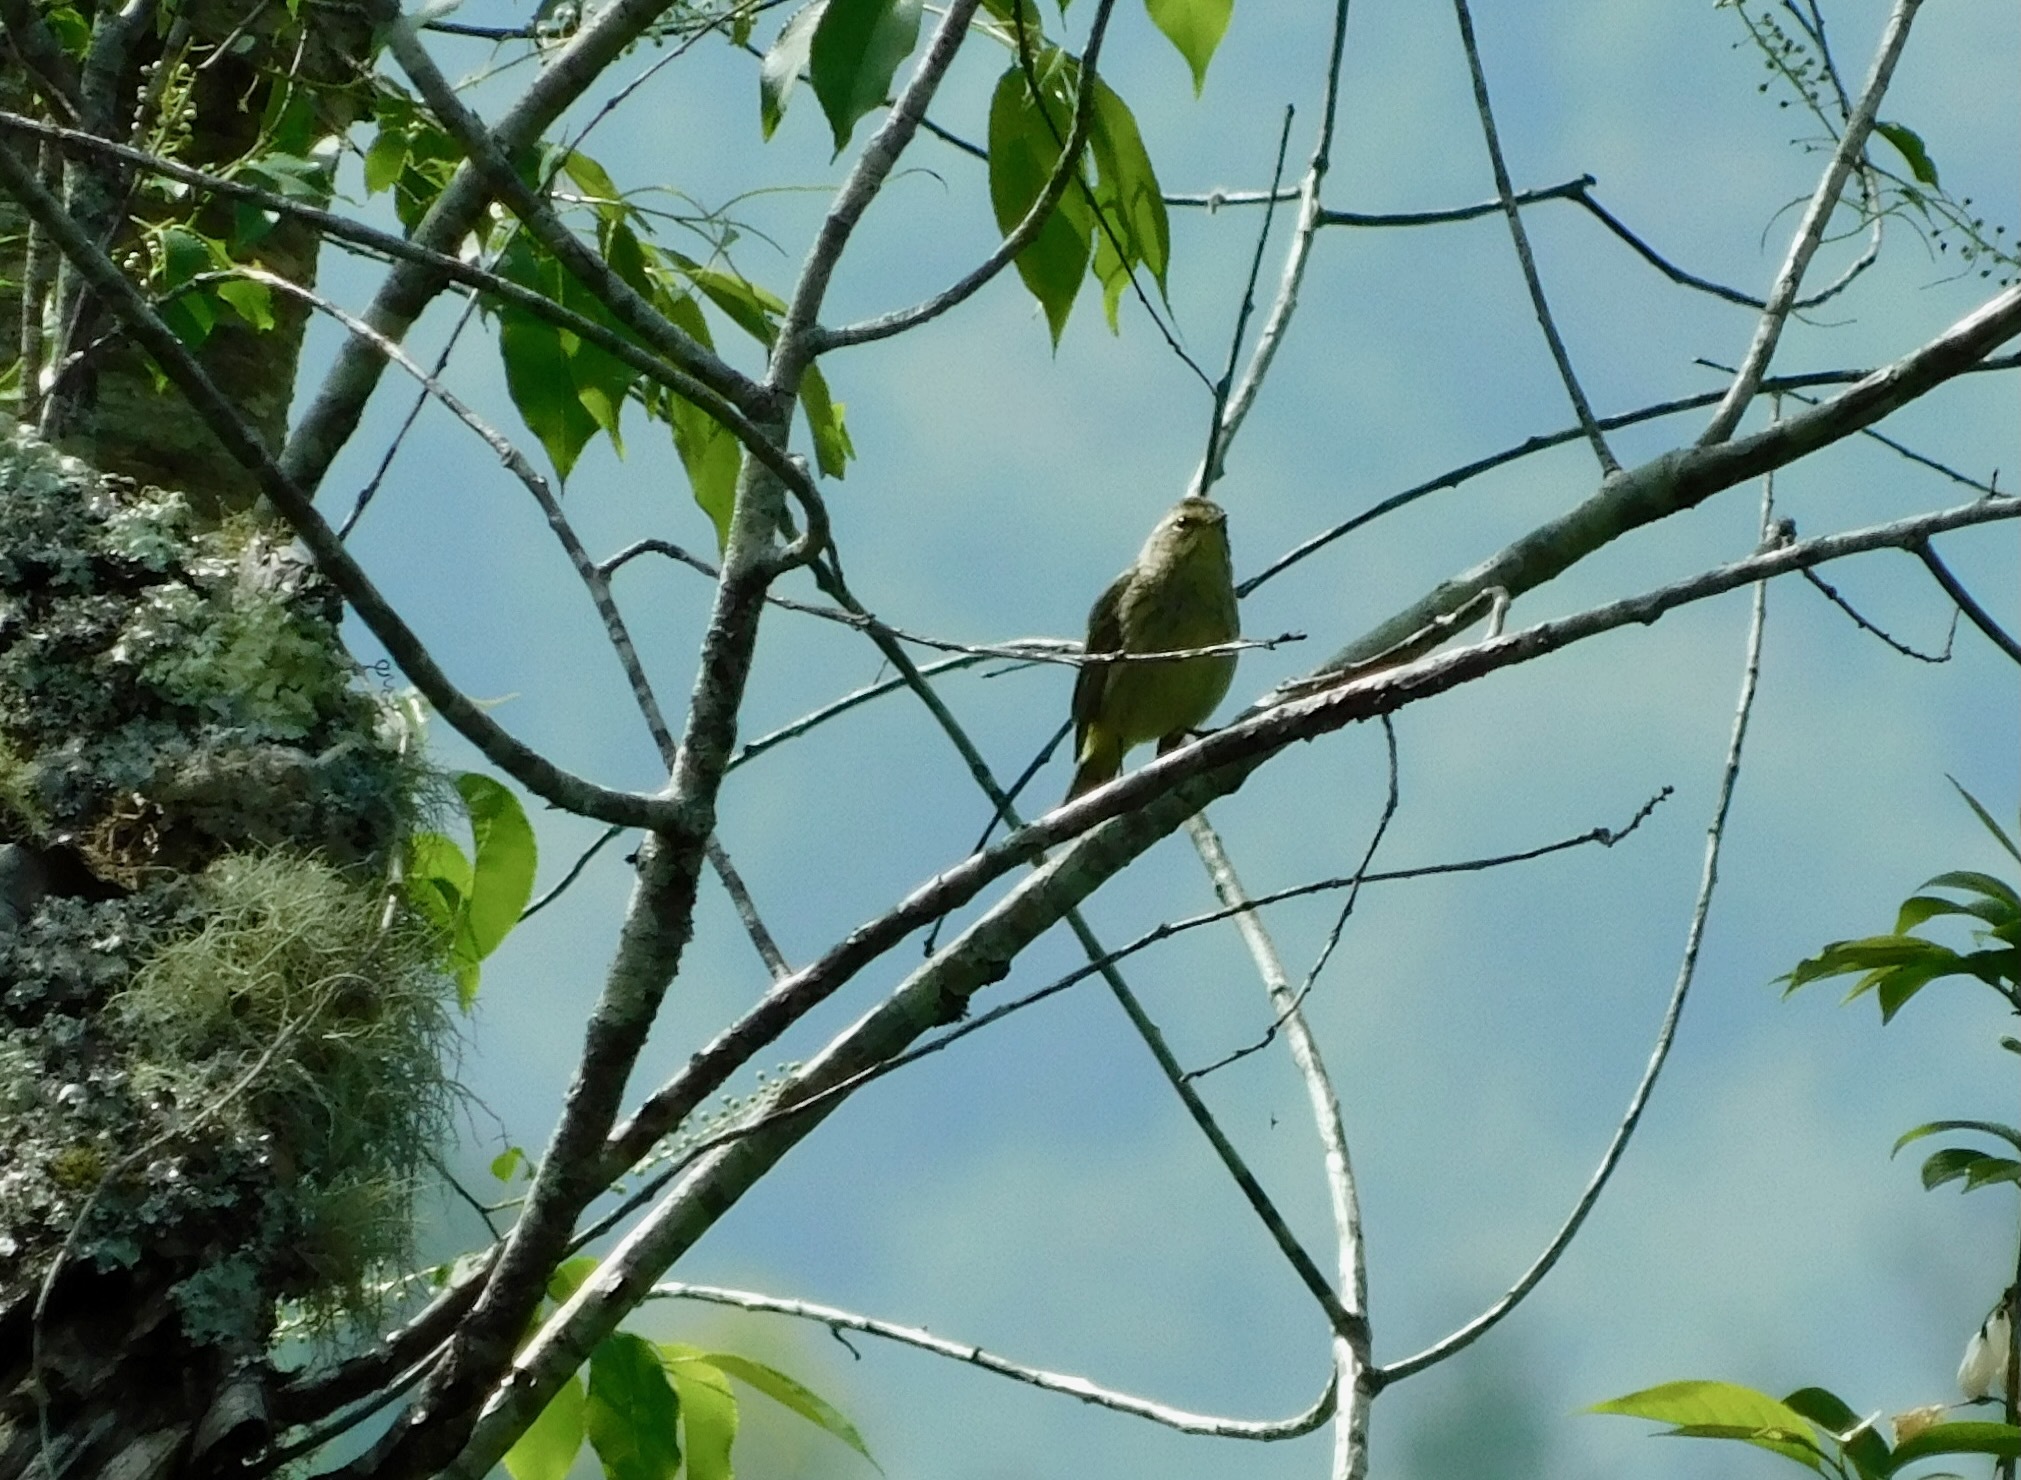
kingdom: Animalia
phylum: Chordata
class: Aves
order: Passeriformes
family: Parulidae
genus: Setophaga
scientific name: Setophaga palmarum
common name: Palm warbler
